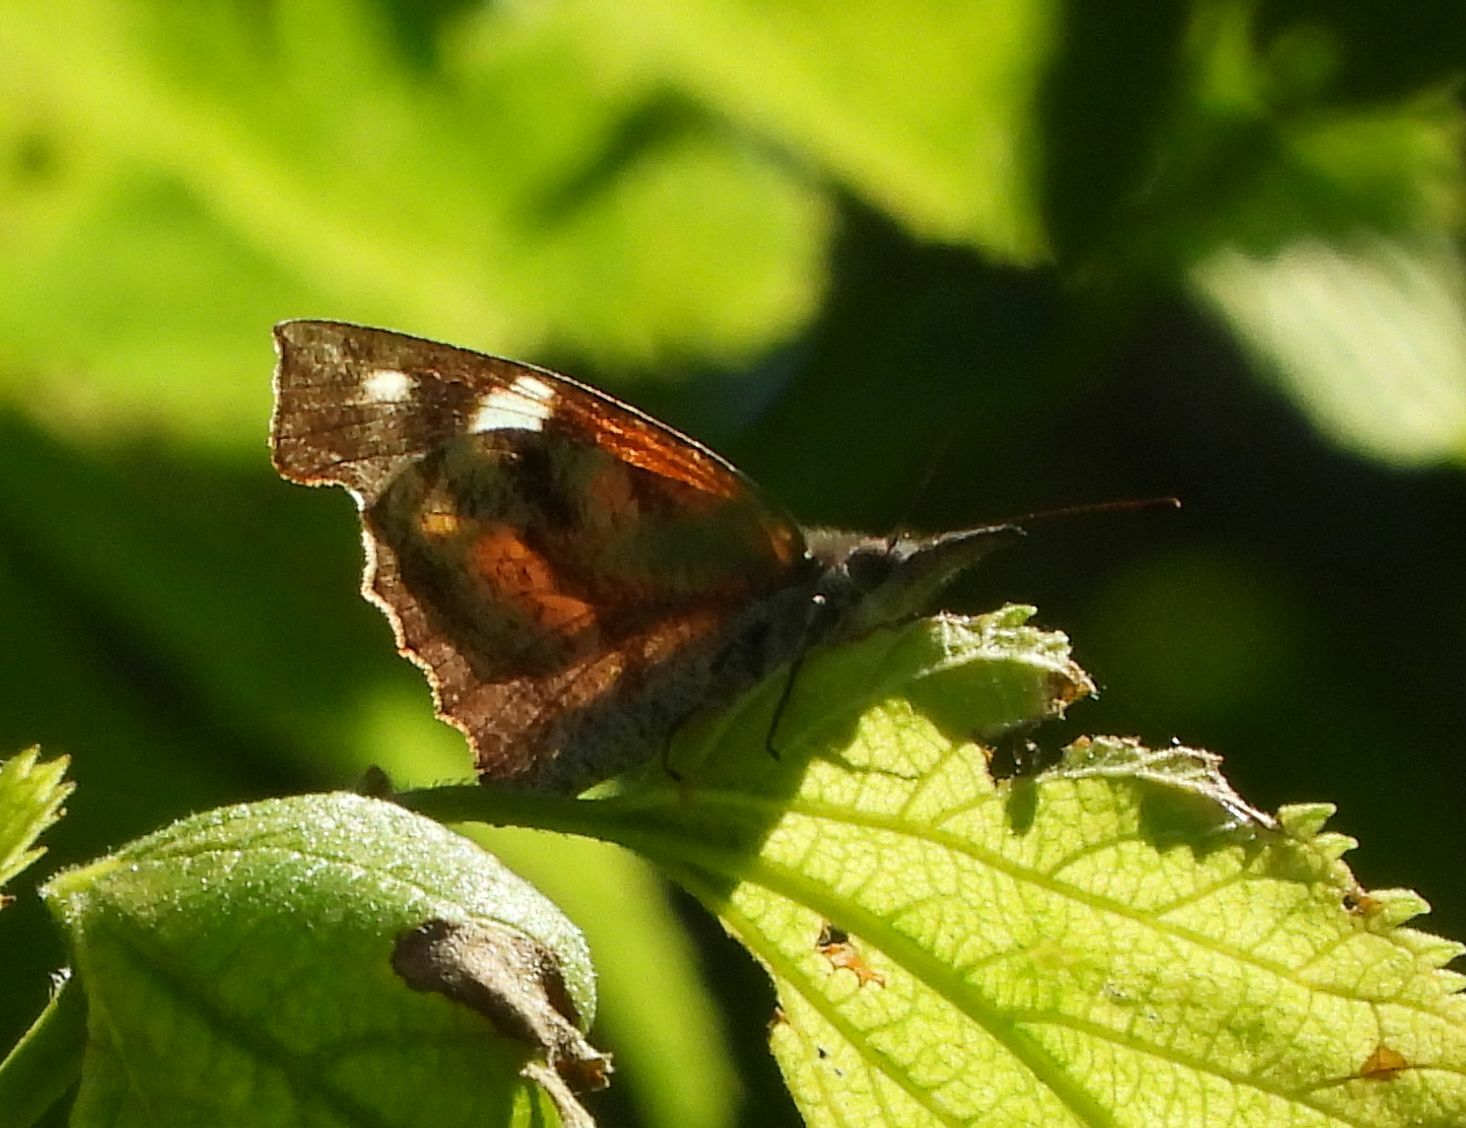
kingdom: Animalia
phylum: Arthropoda
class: Insecta
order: Lepidoptera
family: Nymphalidae
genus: Libytheana
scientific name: Libytheana carinenta
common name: American snout
